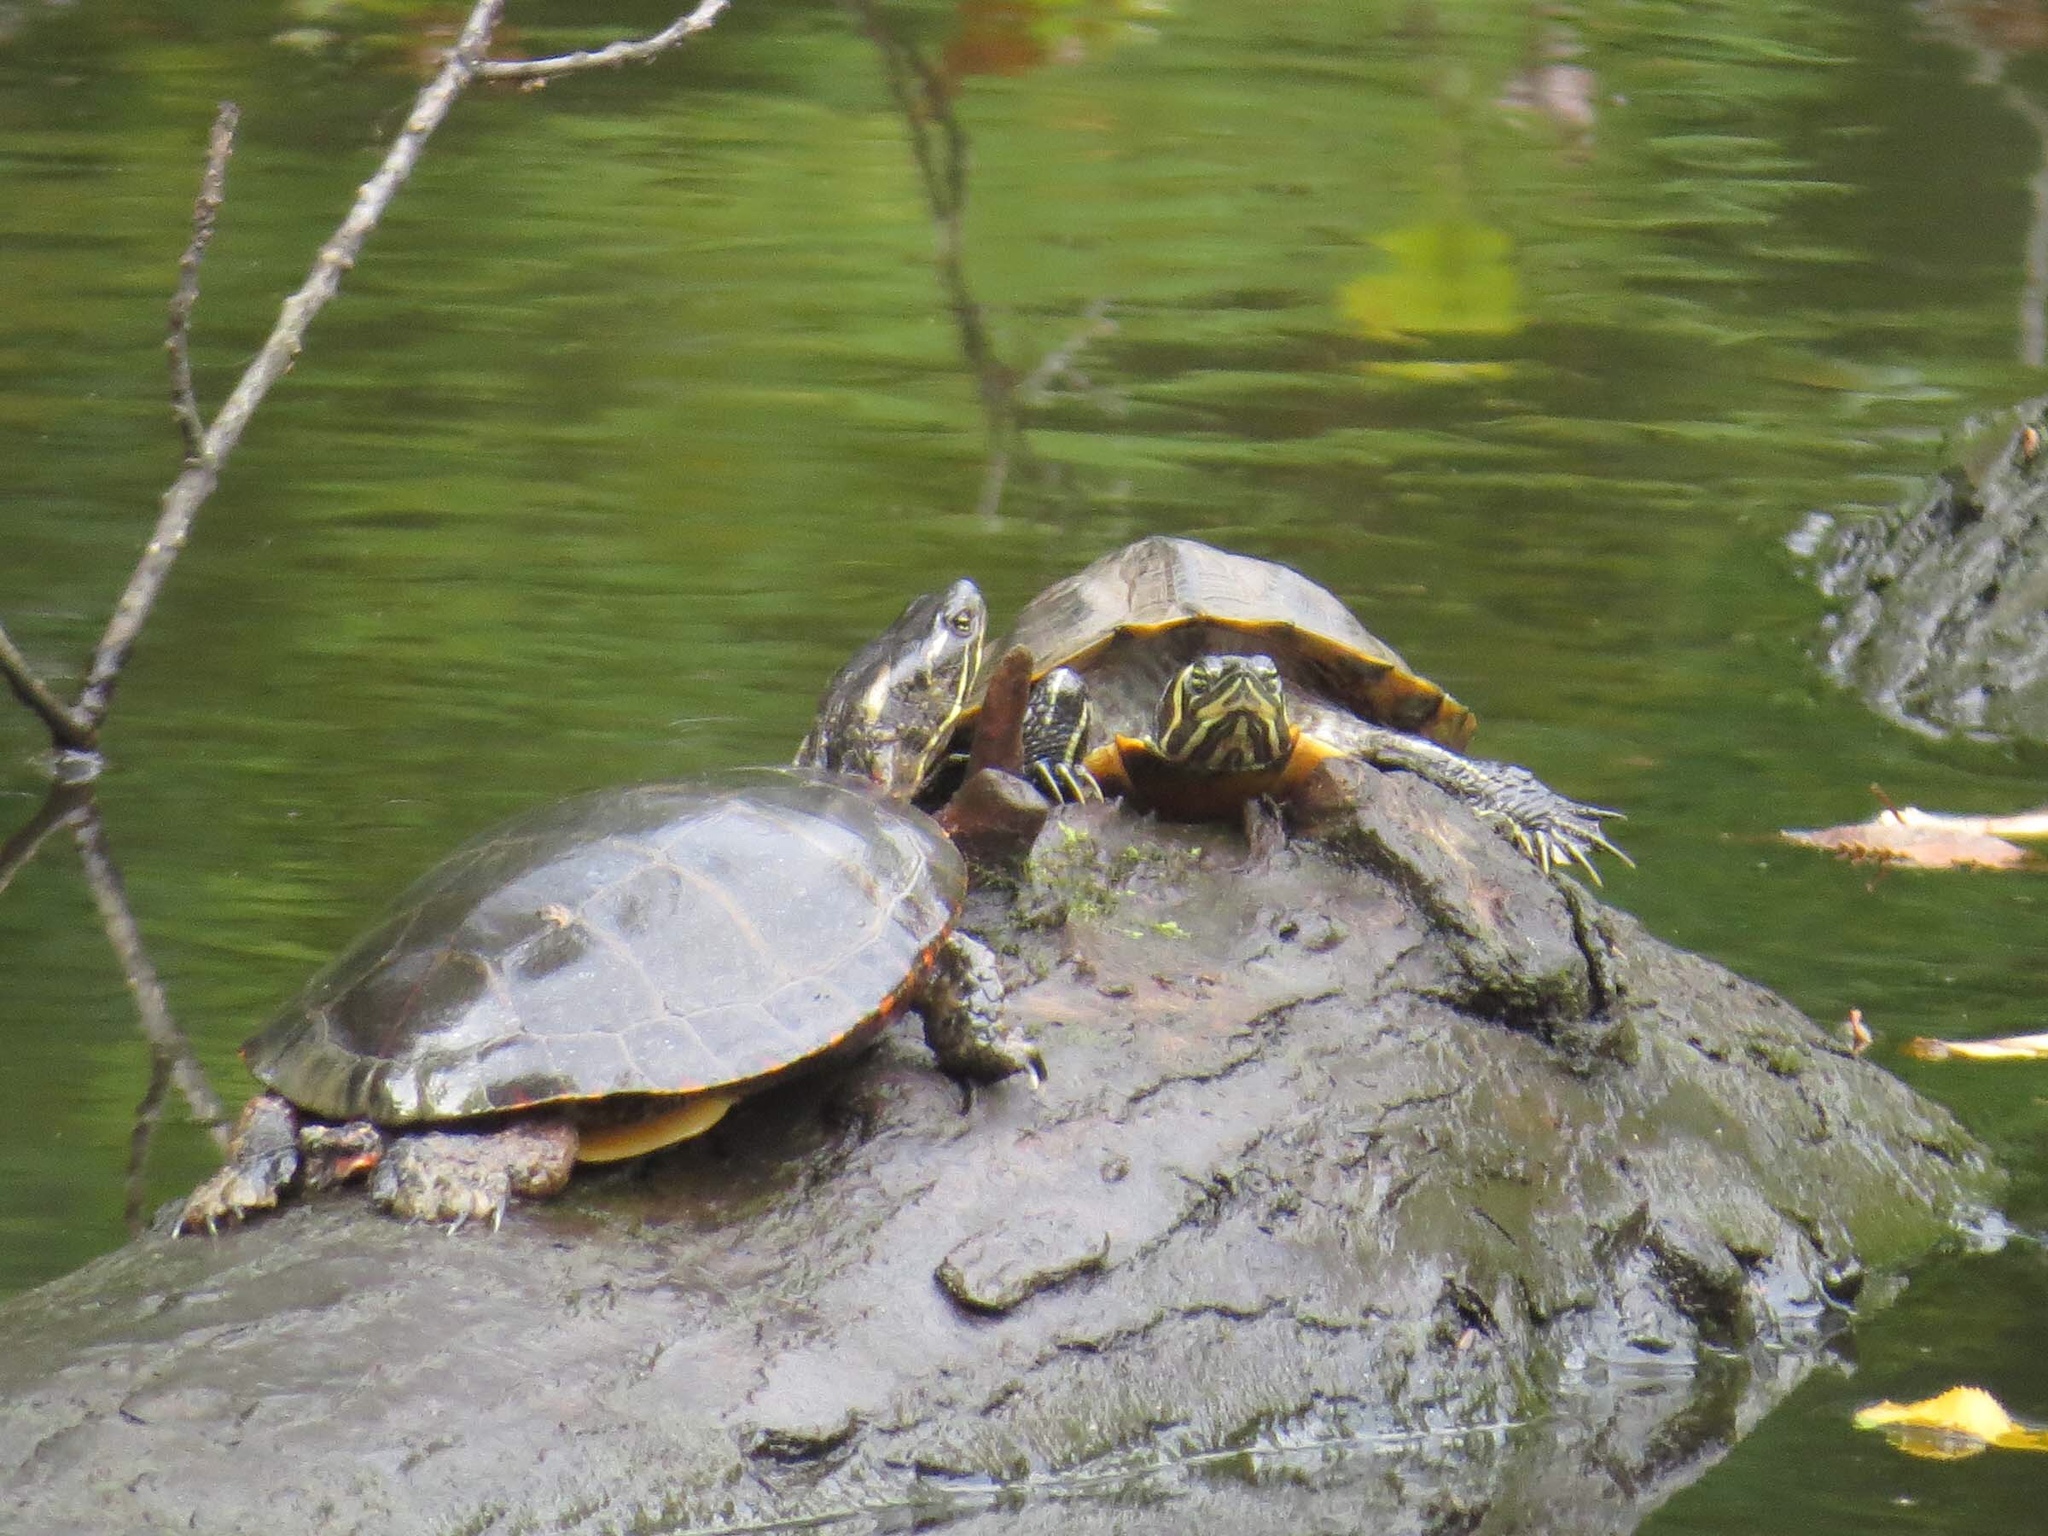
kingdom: Animalia
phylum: Chordata
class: Testudines
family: Emydidae
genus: Chrysemys
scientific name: Chrysemys picta
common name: Painted turtle
